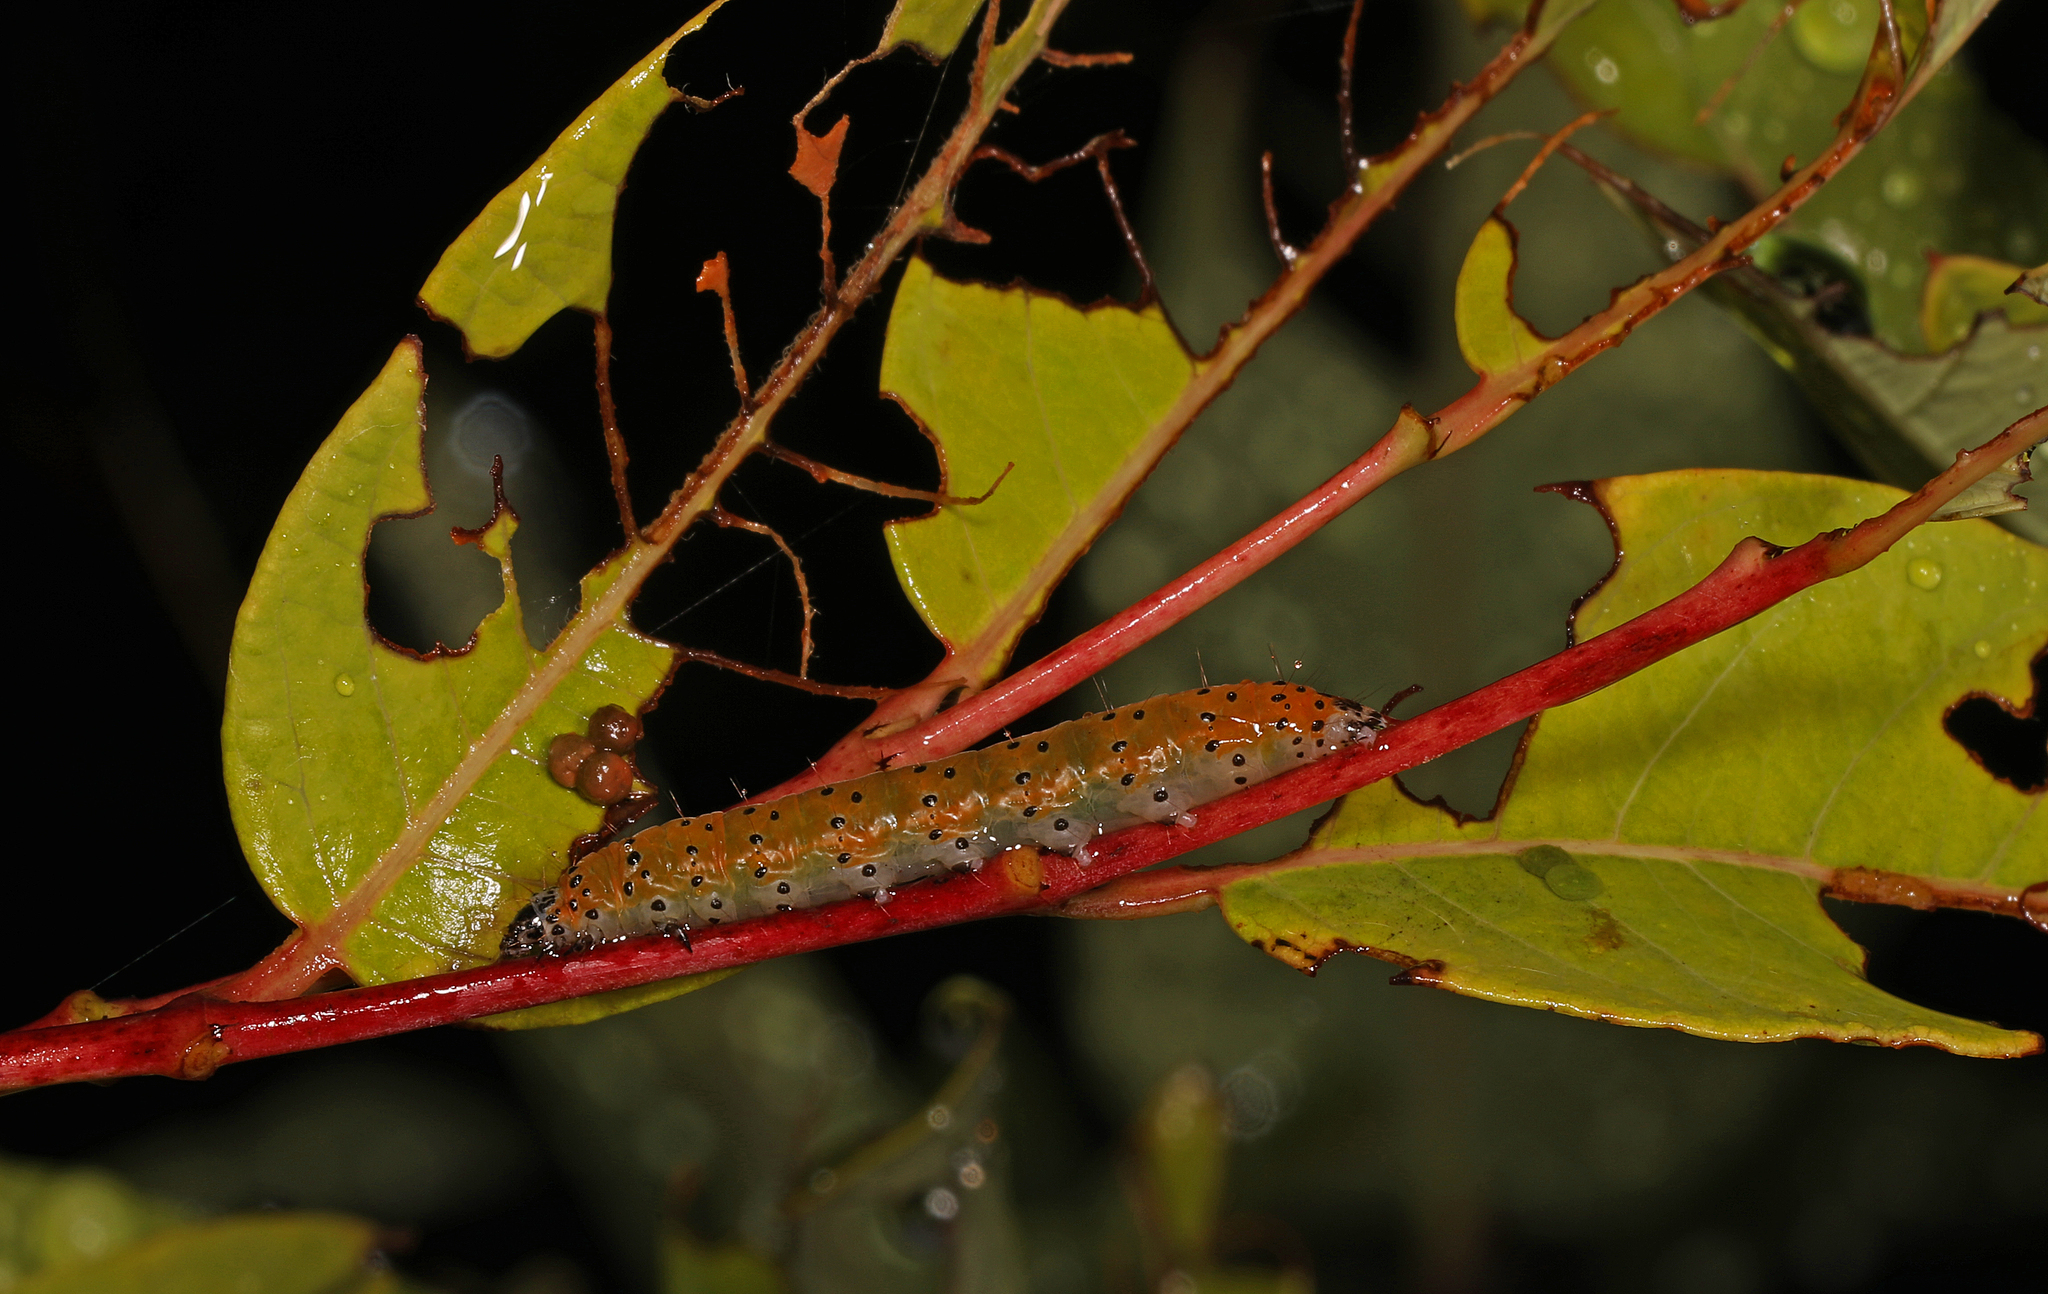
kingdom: Animalia
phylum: Arthropoda
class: Insecta
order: Lepidoptera
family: Crambidae
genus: Saucrobotys
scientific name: Saucrobotys futilalis
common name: Dogbane saucrobotys moth
